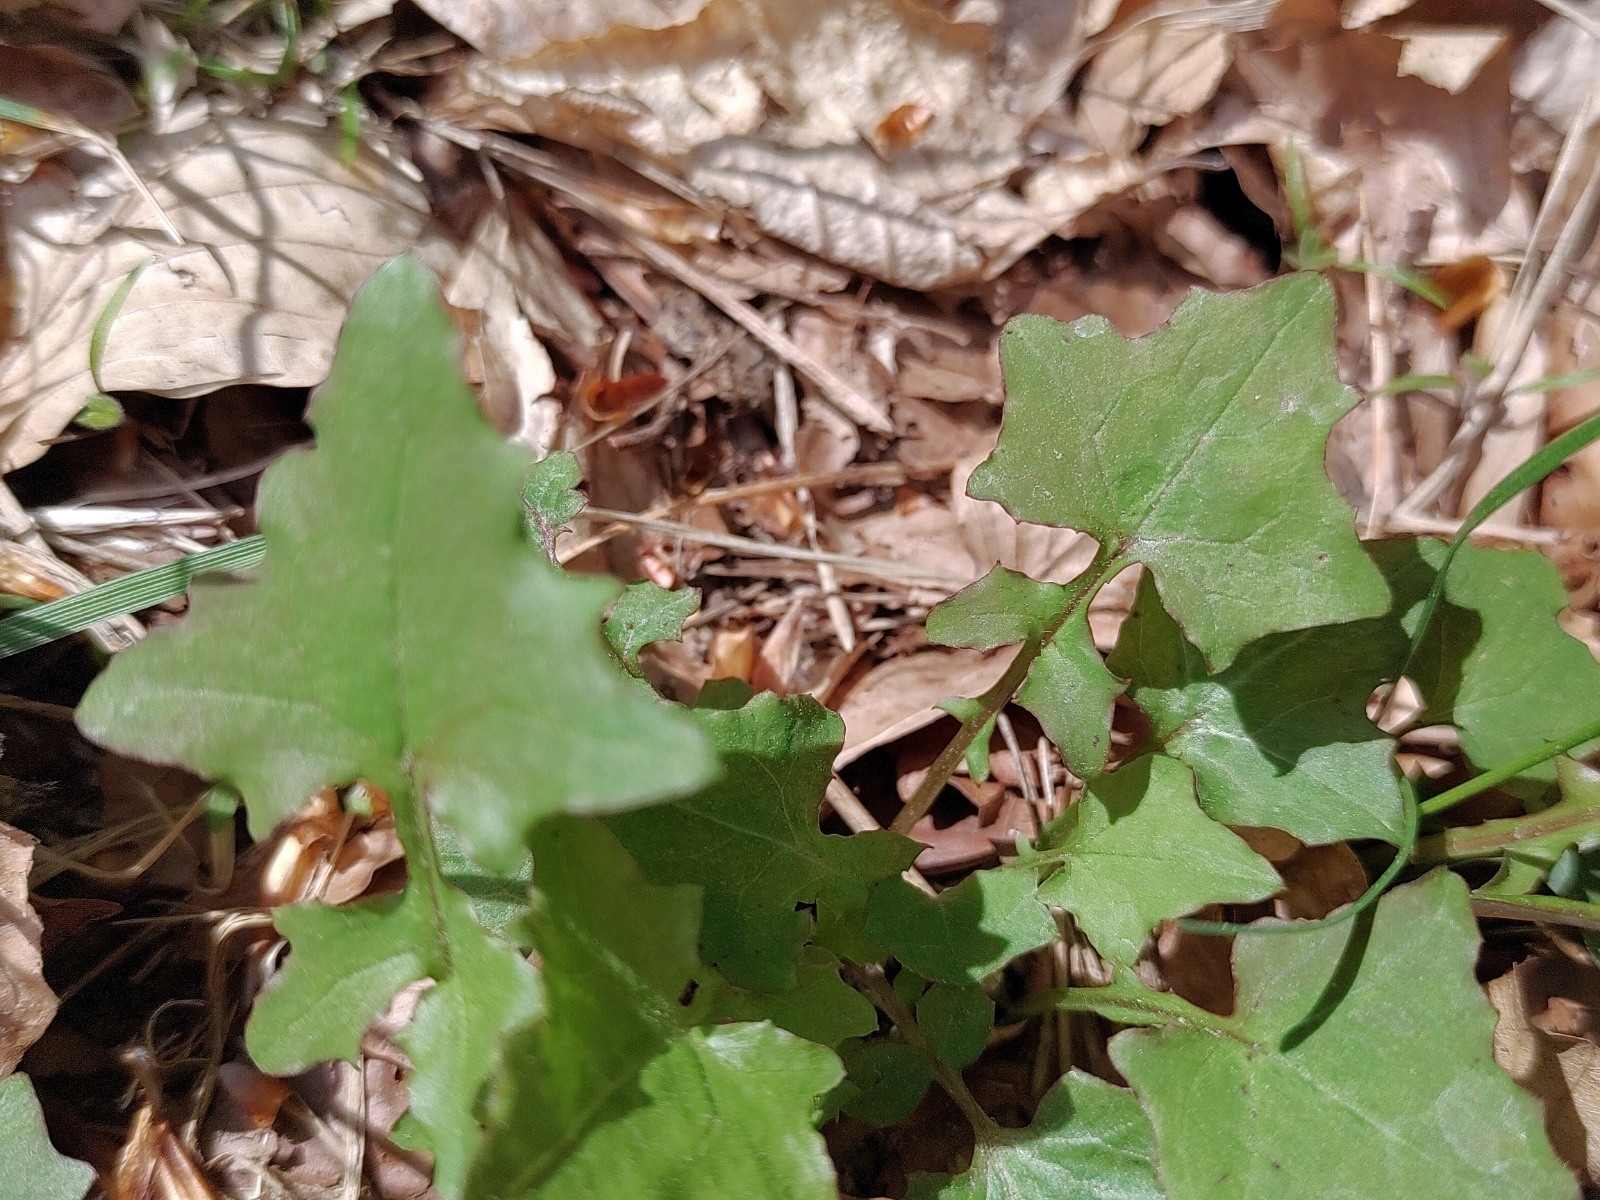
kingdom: Plantae
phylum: Tracheophyta
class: Magnoliopsida
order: Asterales
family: Asteraceae
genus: Mycelis
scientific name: Mycelis muralis
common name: Wall lettuce
